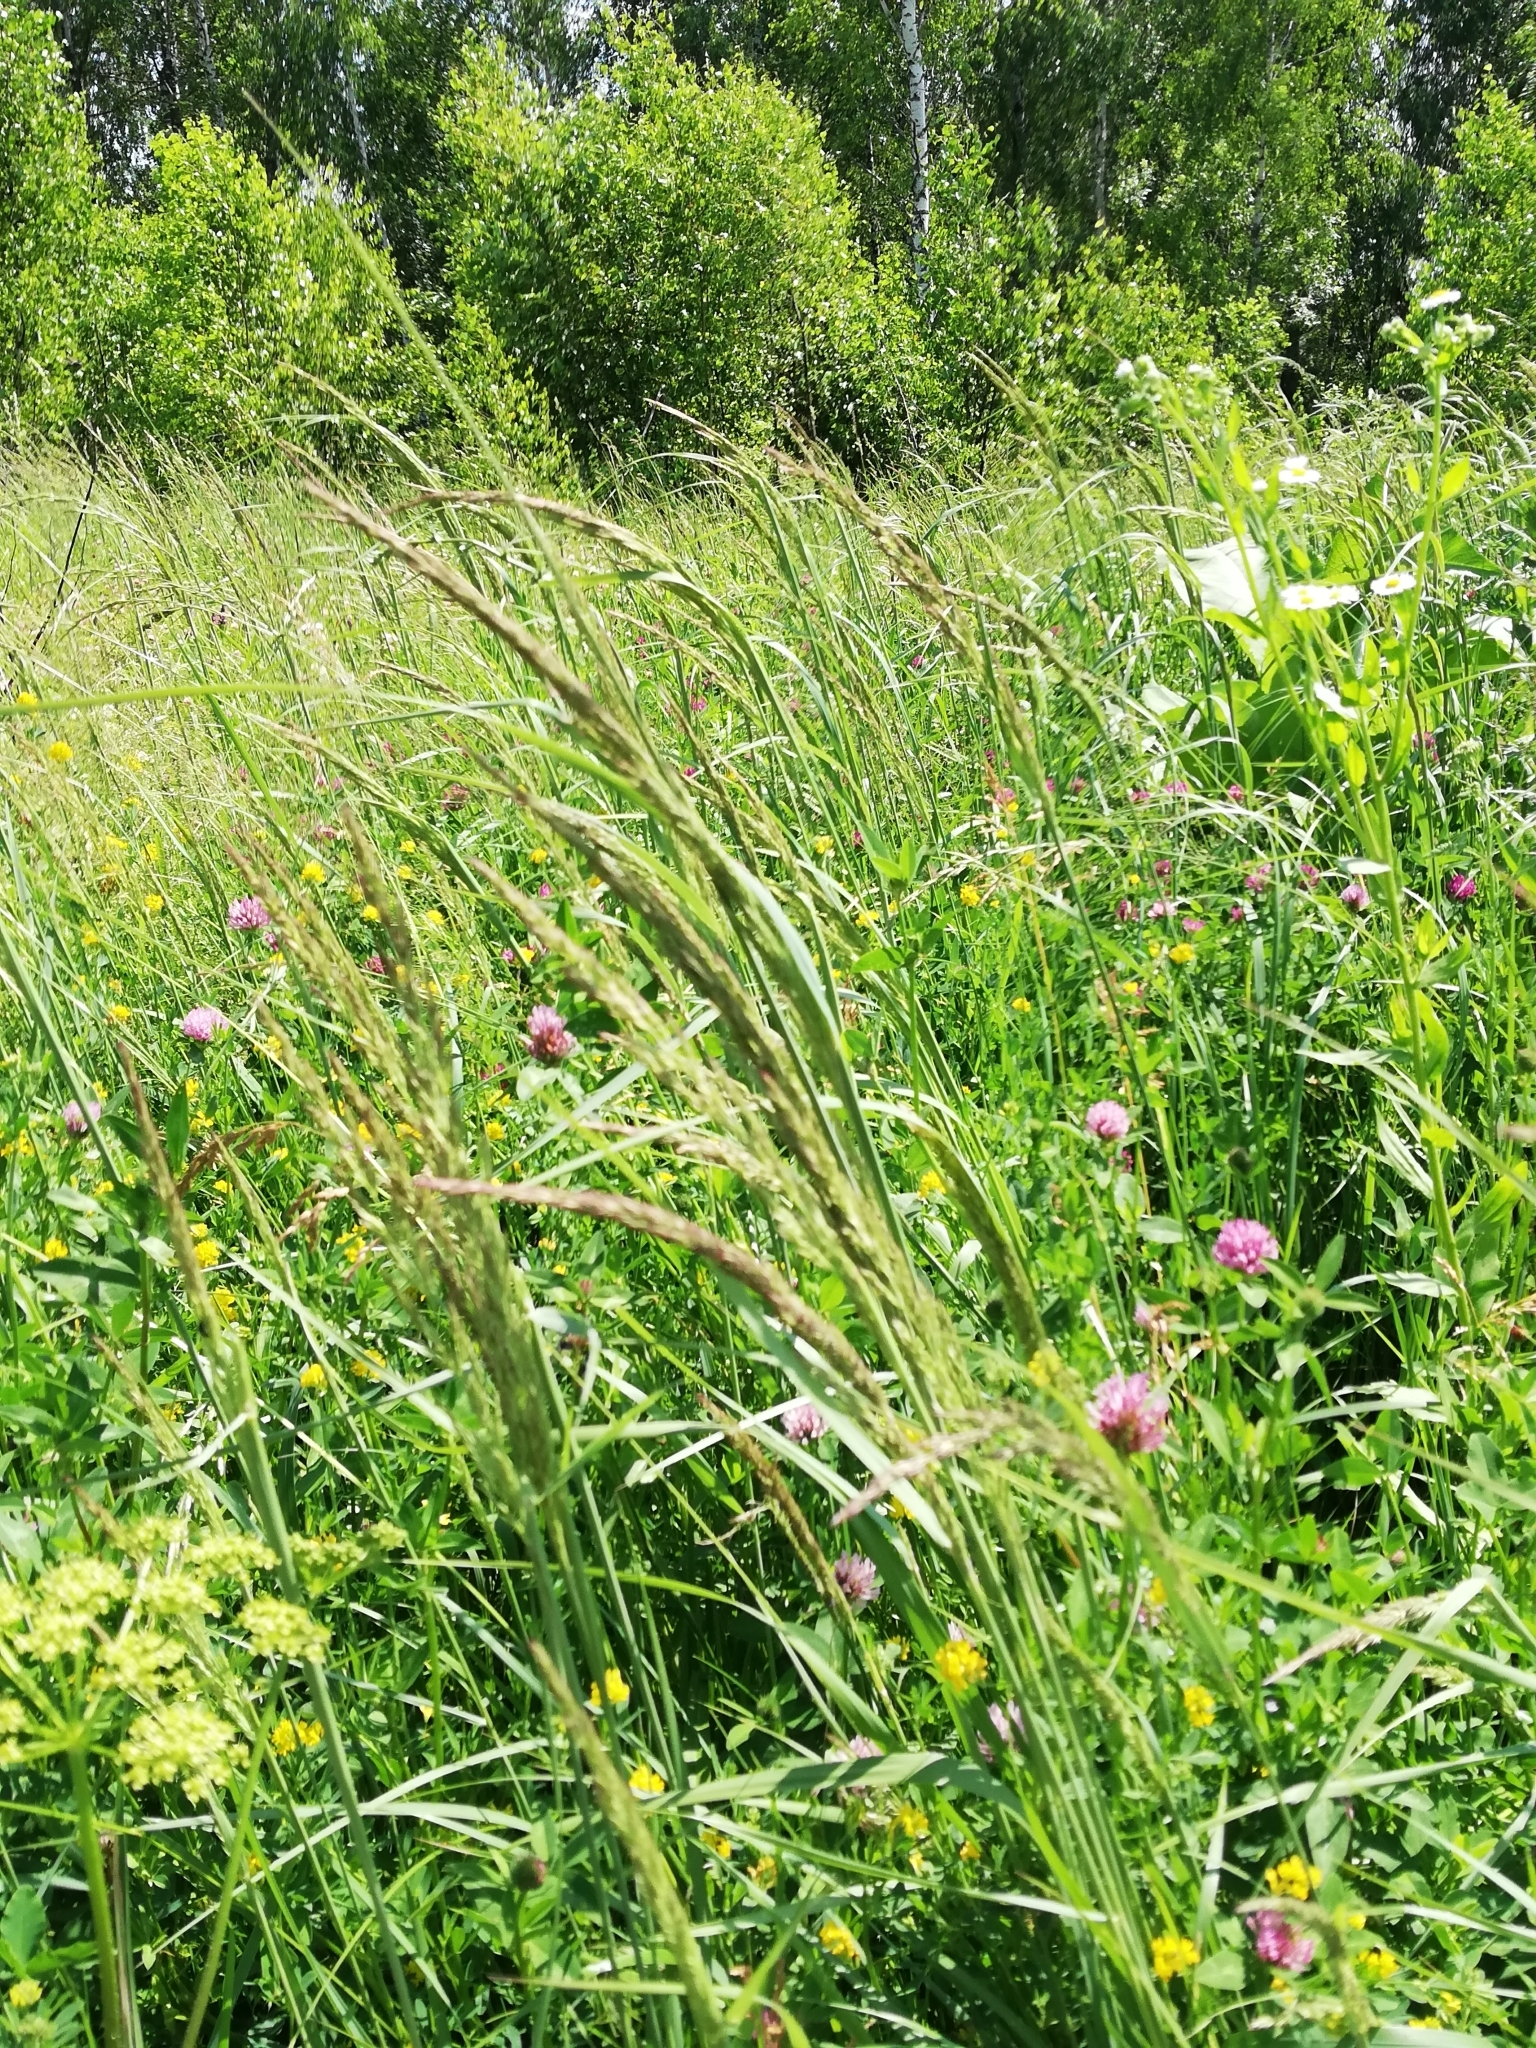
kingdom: Plantae
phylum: Tracheophyta
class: Liliopsida
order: Poales
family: Poaceae
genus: Calamagrostis
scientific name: Calamagrostis epigejos
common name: Wood small-reed
